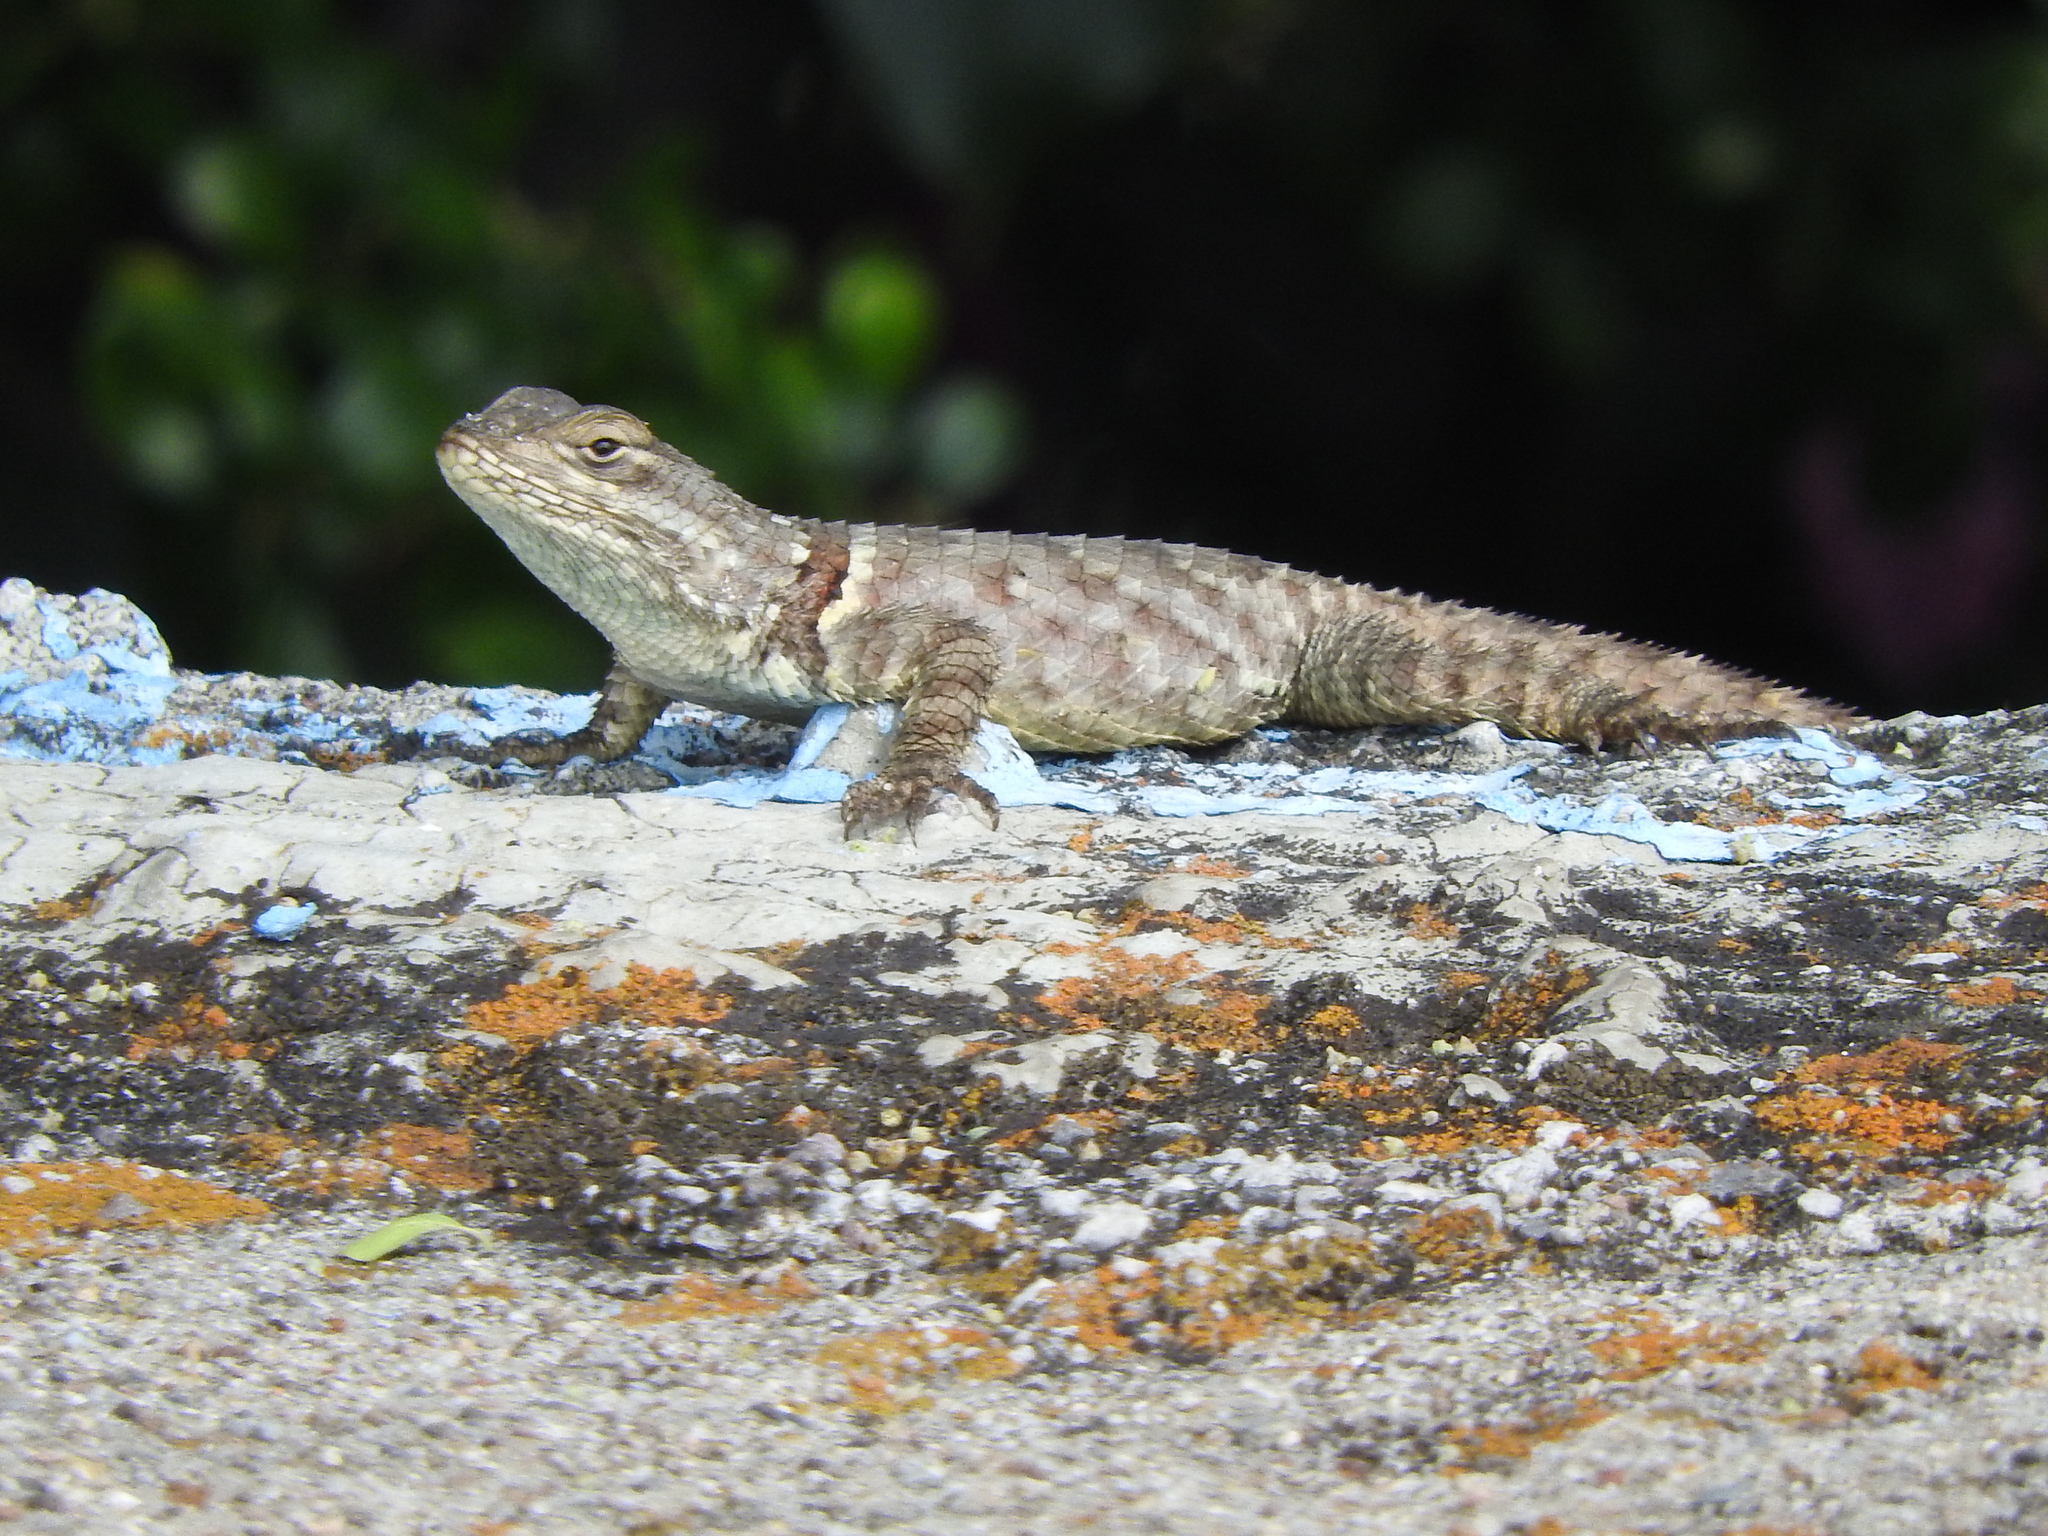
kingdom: Animalia
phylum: Chordata
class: Squamata
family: Phrynosomatidae
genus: Sceloporus
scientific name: Sceloporus torquatus
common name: Central plateau torquate lizard [melanogaster]
